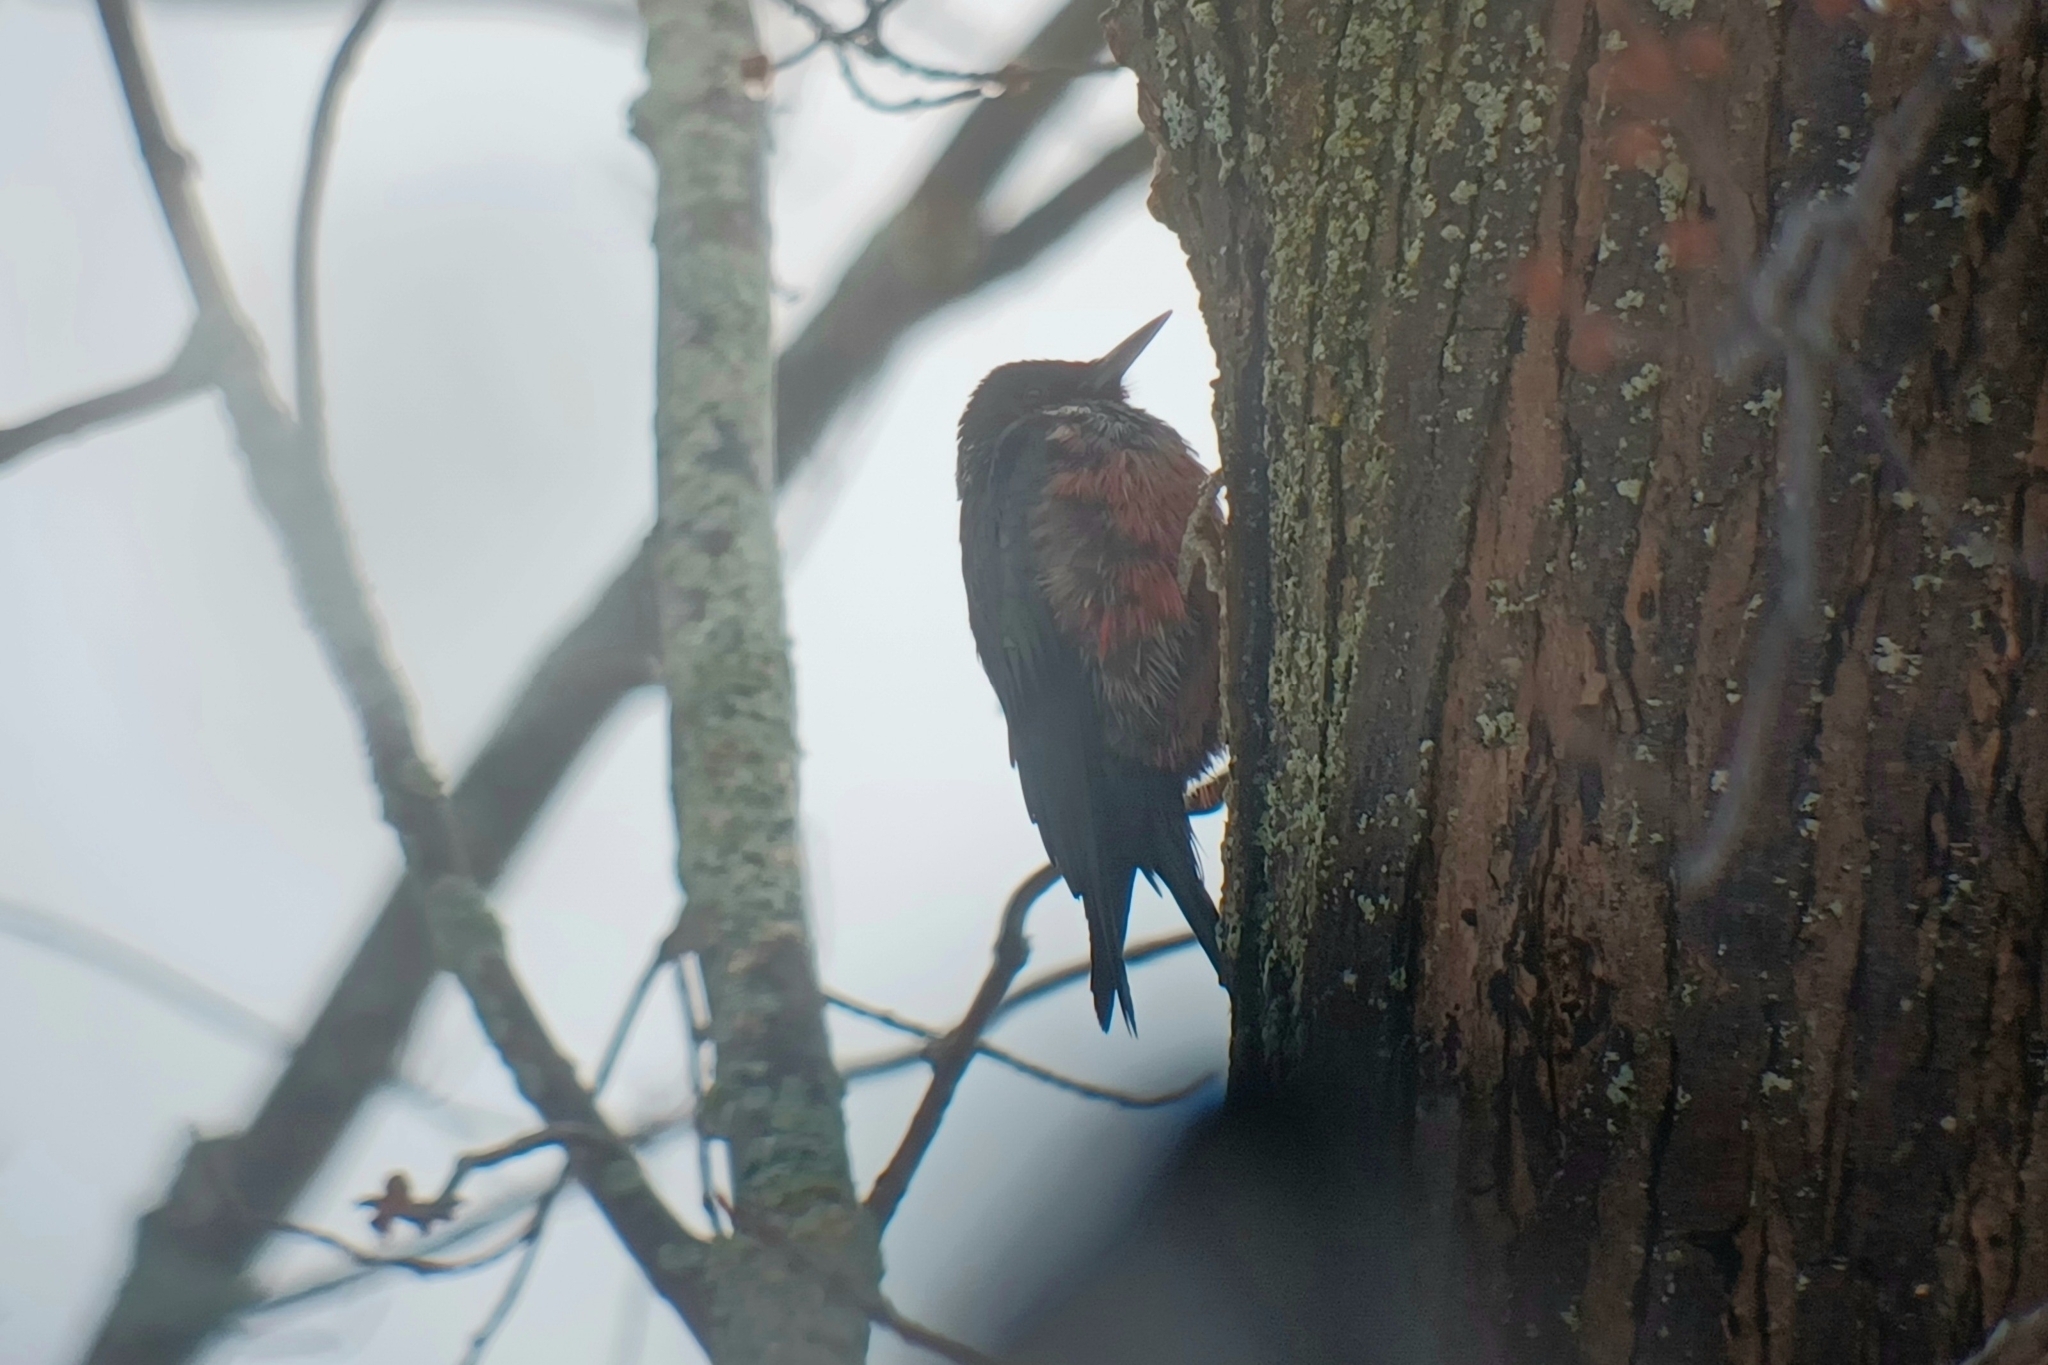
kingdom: Animalia
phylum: Chordata
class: Aves
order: Piciformes
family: Picidae
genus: Melanerpes
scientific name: Melanerpes lewis
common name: Lewis's woodpecker
